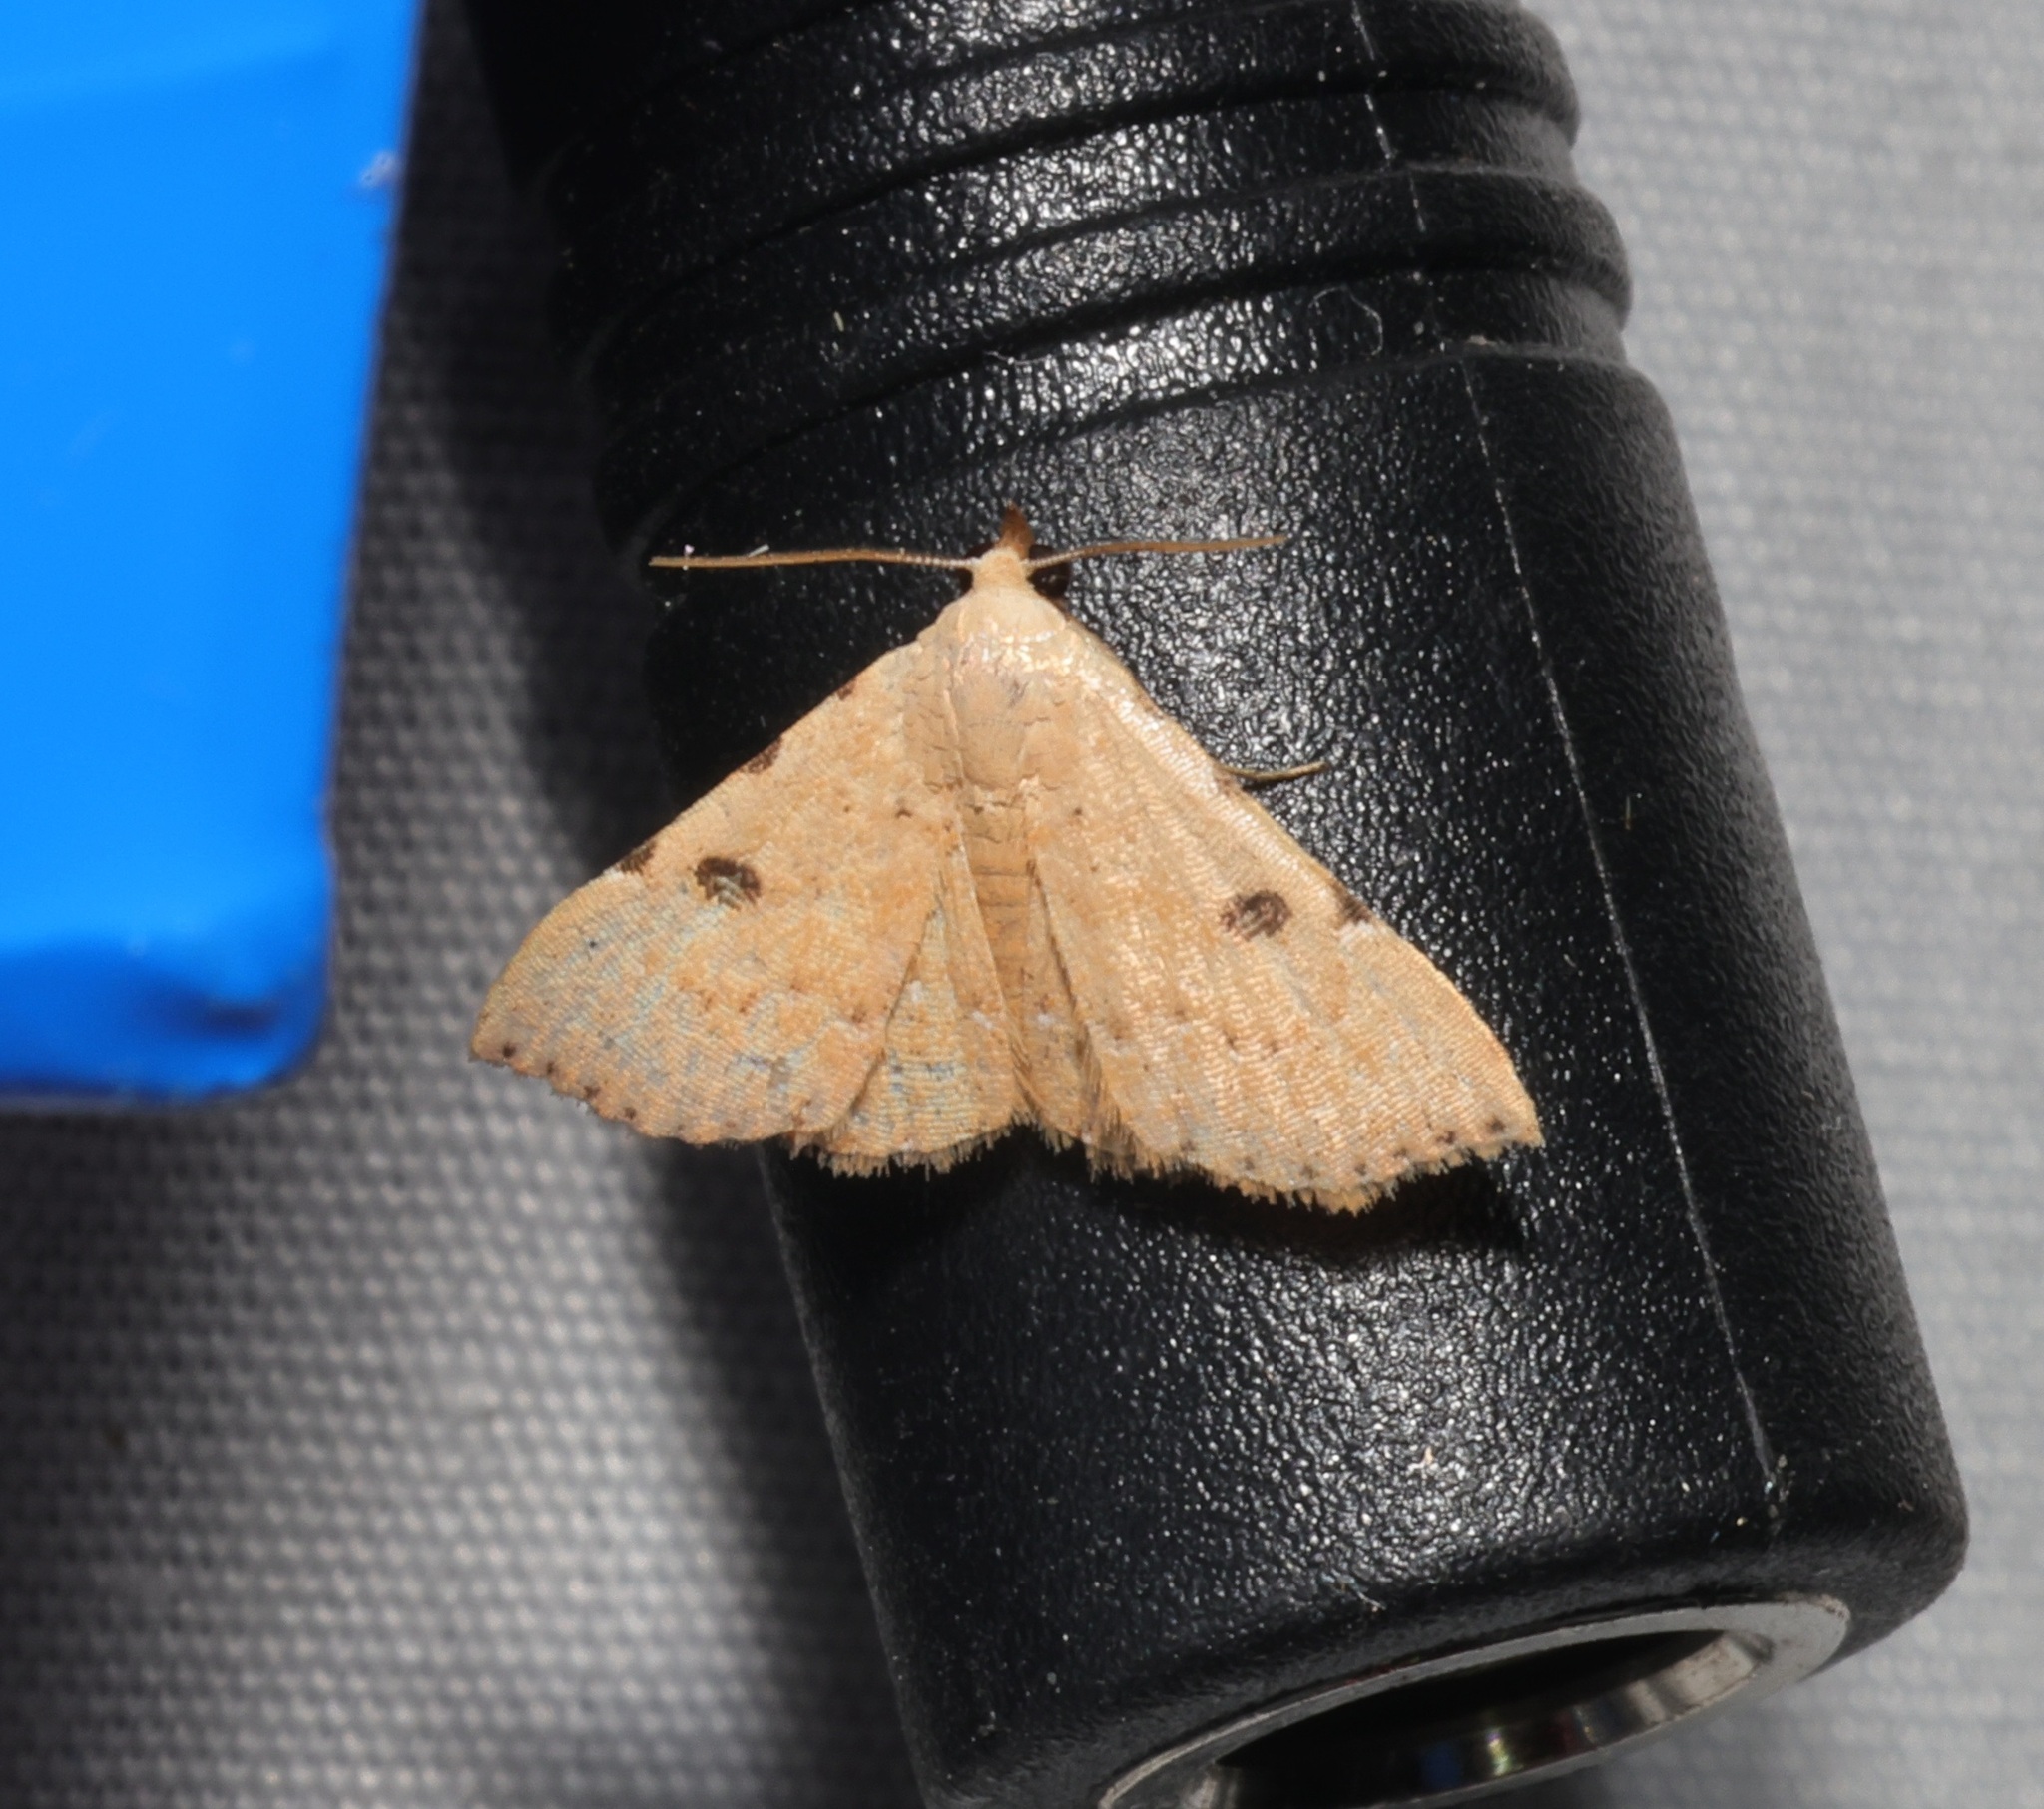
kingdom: Animalia
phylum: Arthropoda
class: Insecta
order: Lepidoptera
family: Erebidae
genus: Corgatha
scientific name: Corgatha trichogyia
